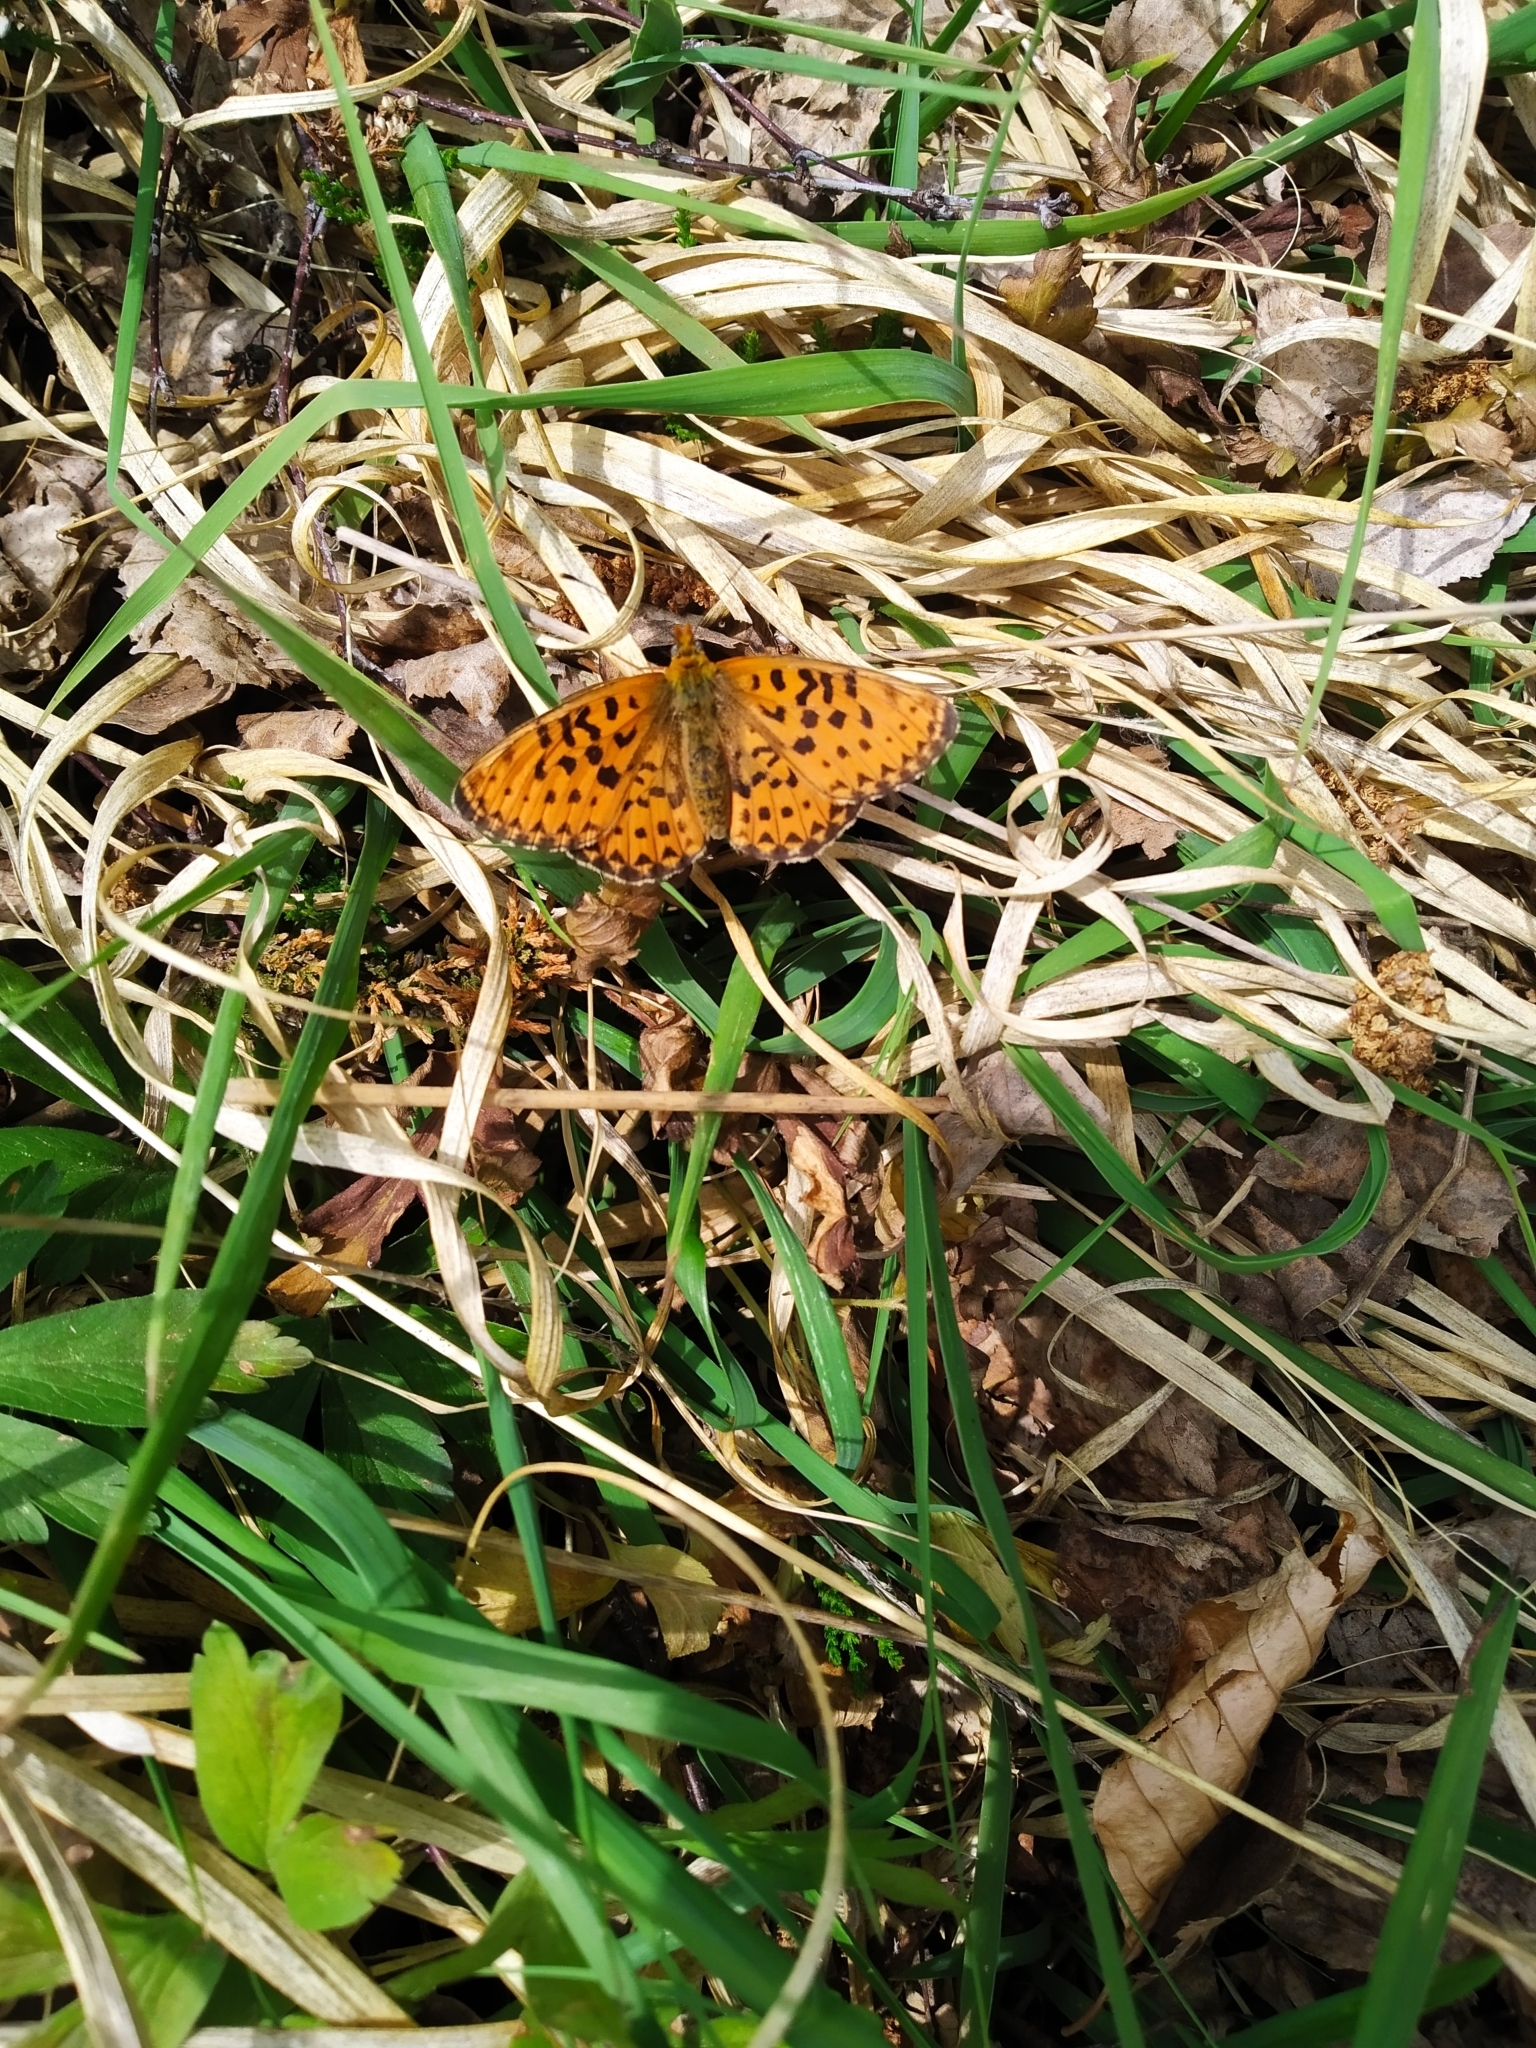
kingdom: Animalia
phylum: Arthropoda
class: Insecta
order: Lepidoptera
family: Nymphalidae
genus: Clossiana
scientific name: Clossiana euphrosyne
